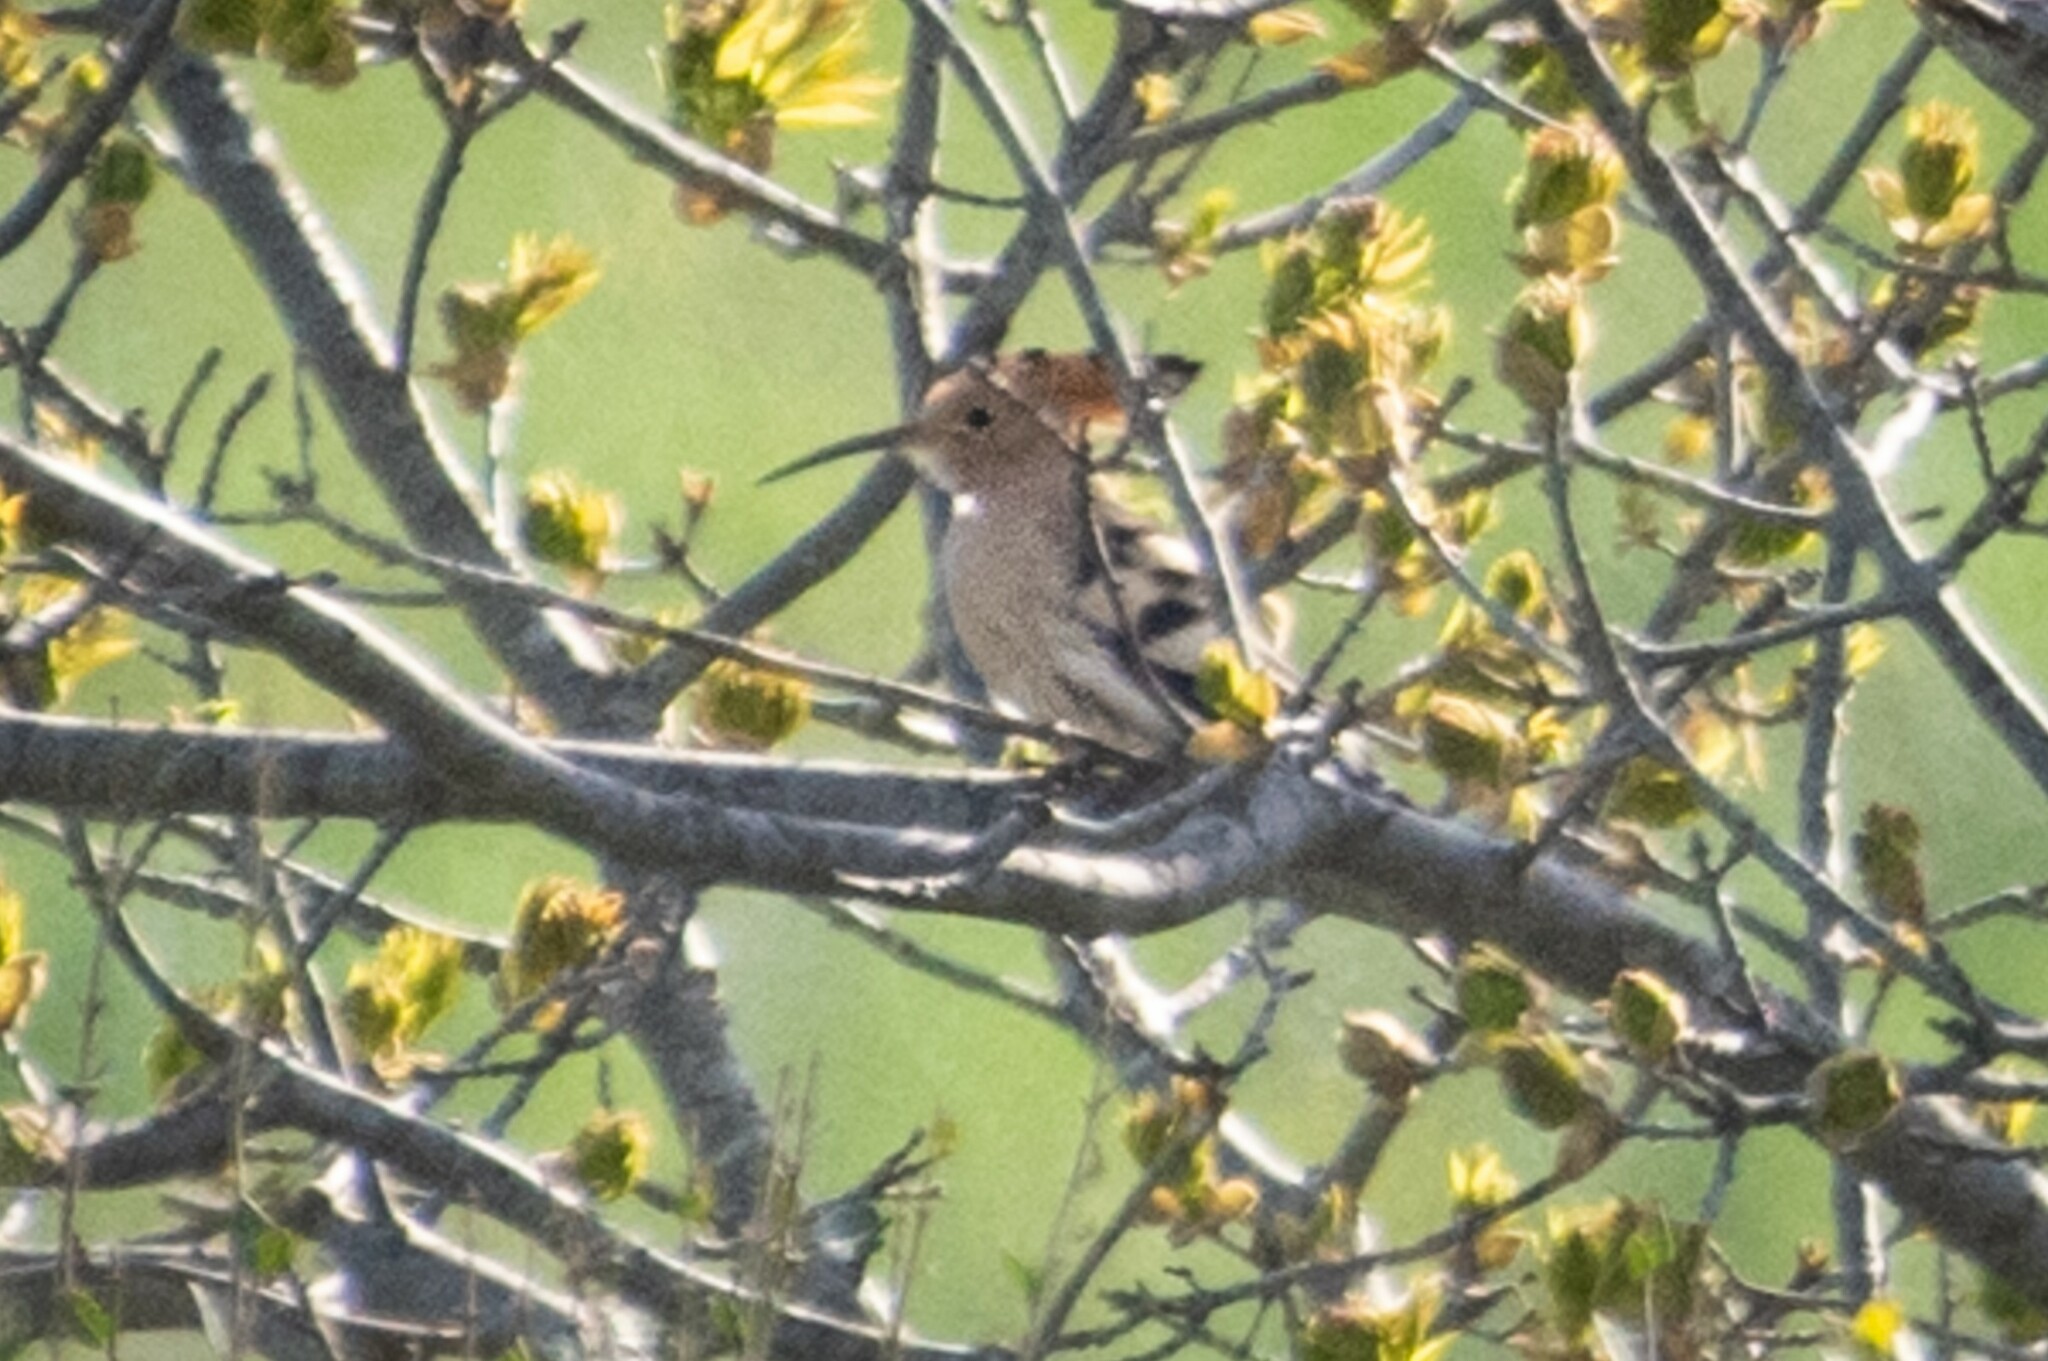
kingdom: Animalia
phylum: Chordata
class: Aves
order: Bucerotiformes
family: Upupidae
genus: Upupa
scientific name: Upupa epops
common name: Eurasian hoopoe
